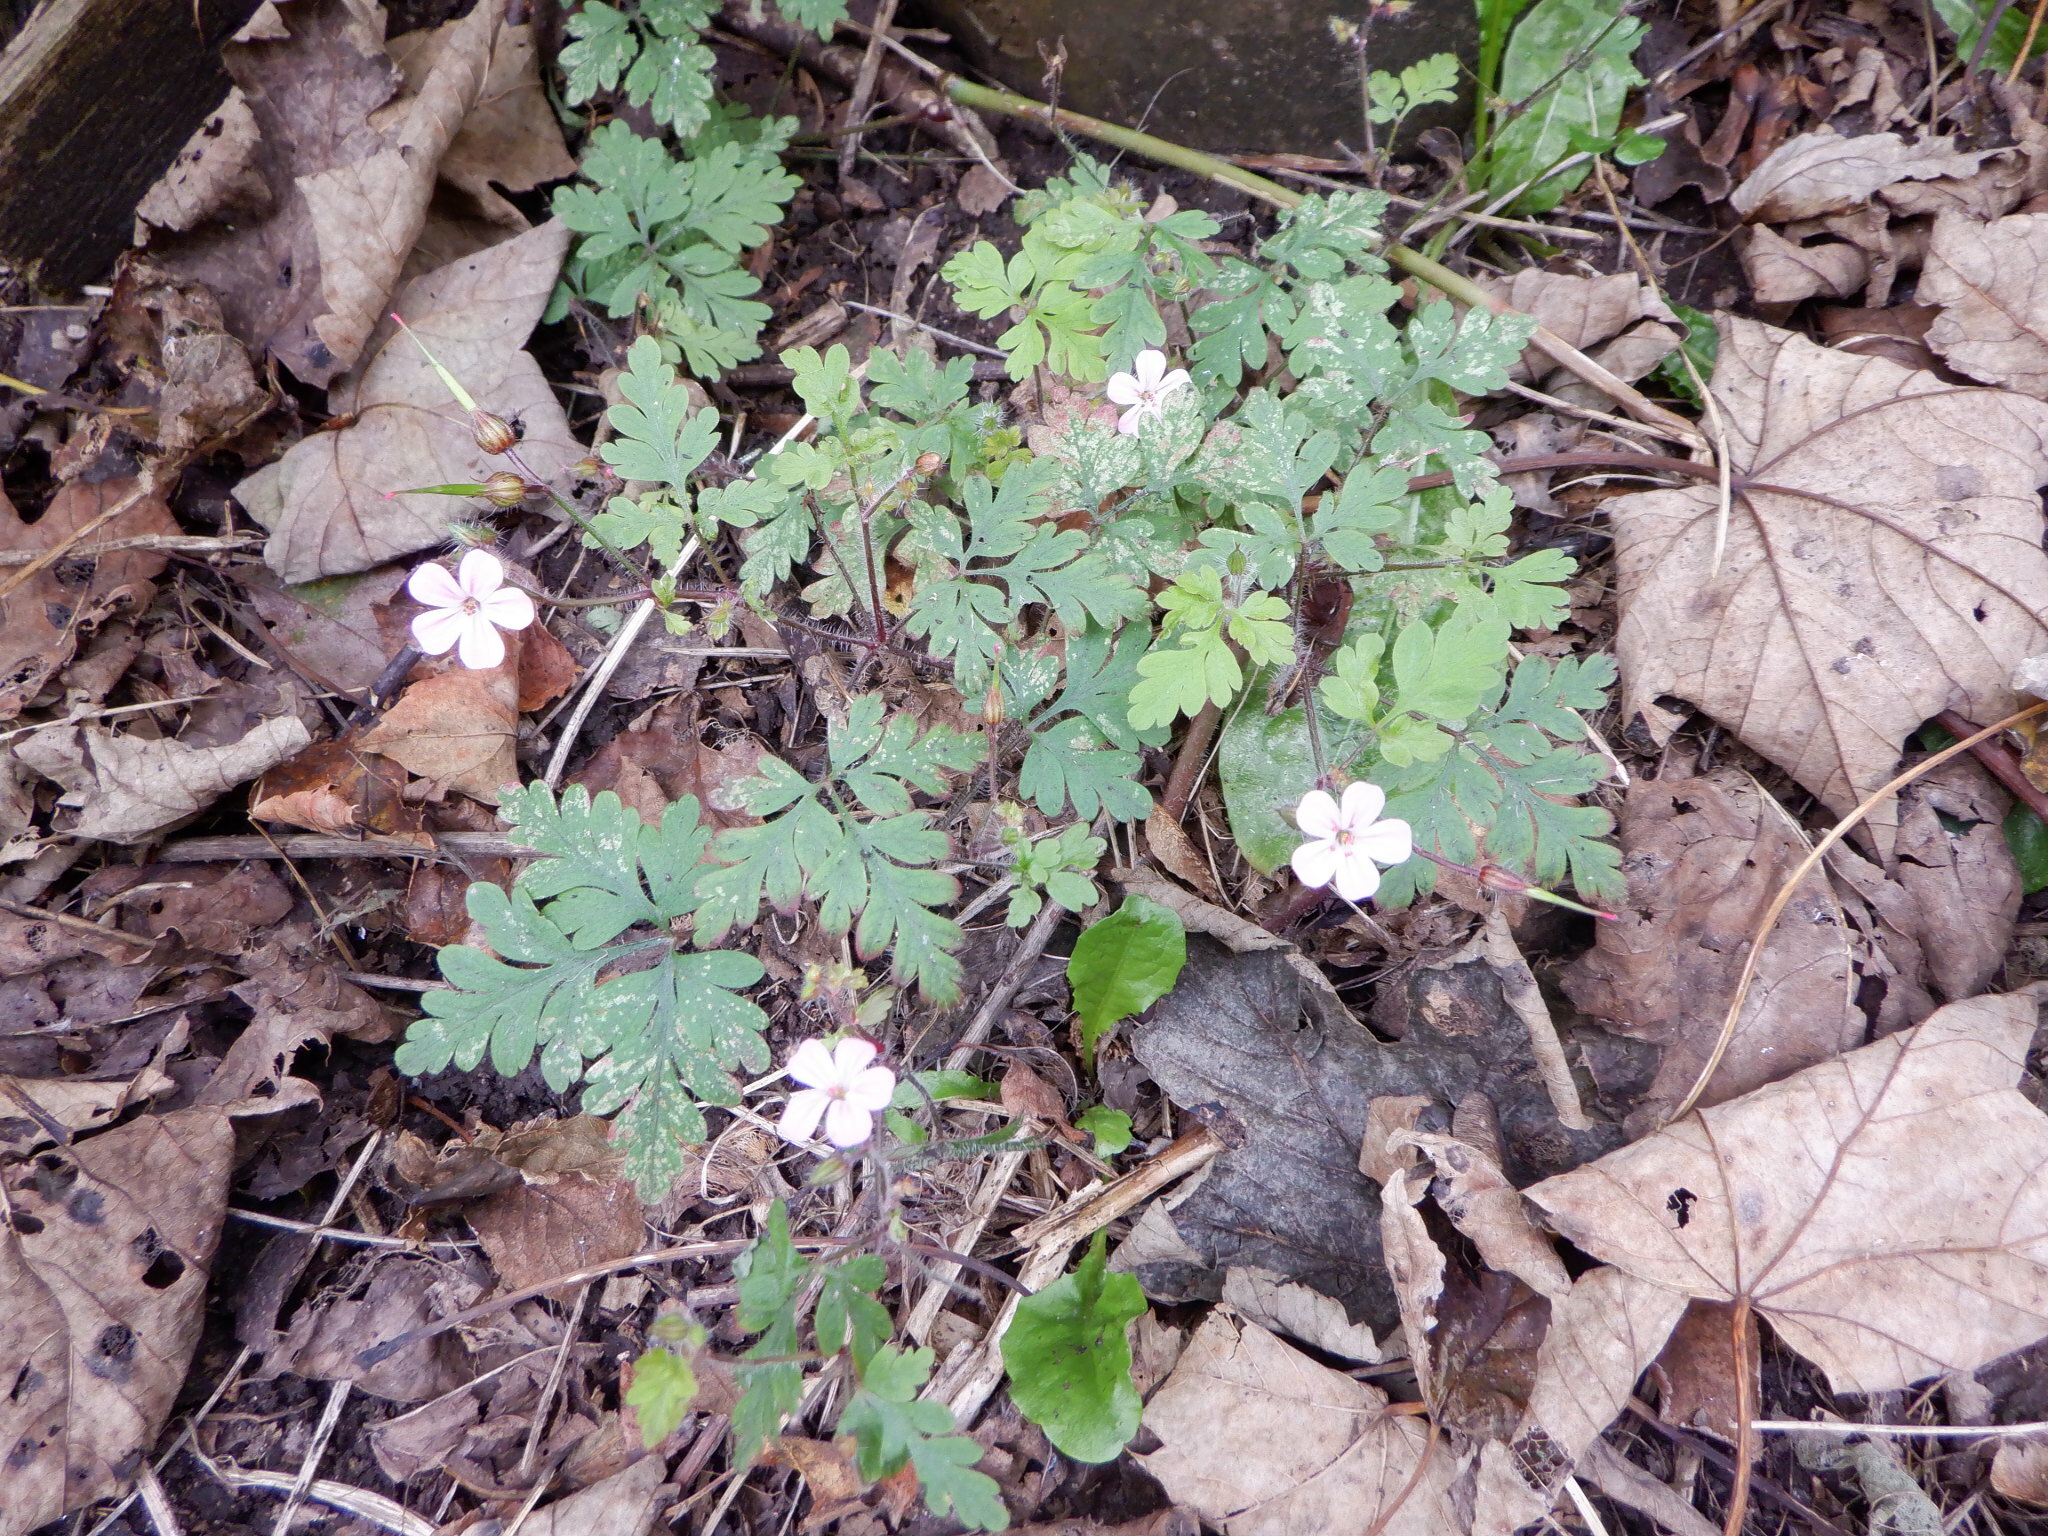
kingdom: Plantae
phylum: Tracheophyta
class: Magnoliopsida
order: Geraniales
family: Geraniaceae
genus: Geranium
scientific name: Geranium robertianum
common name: Herb-robert
